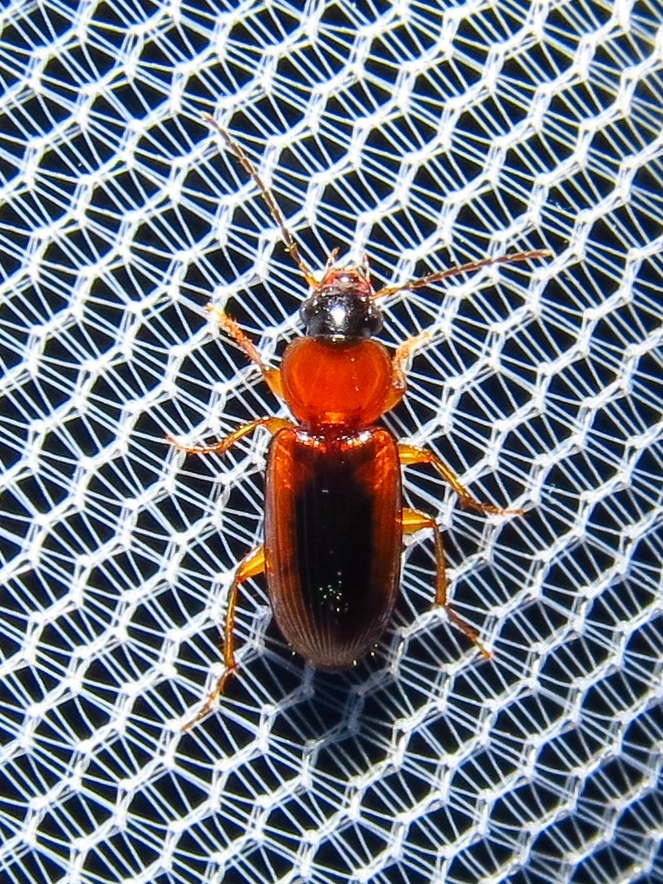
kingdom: Animalia
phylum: Arthropoda
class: Insecta
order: Coleoptera
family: Carabidae
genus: Stenolophus
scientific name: Stenolophus dissimilis
